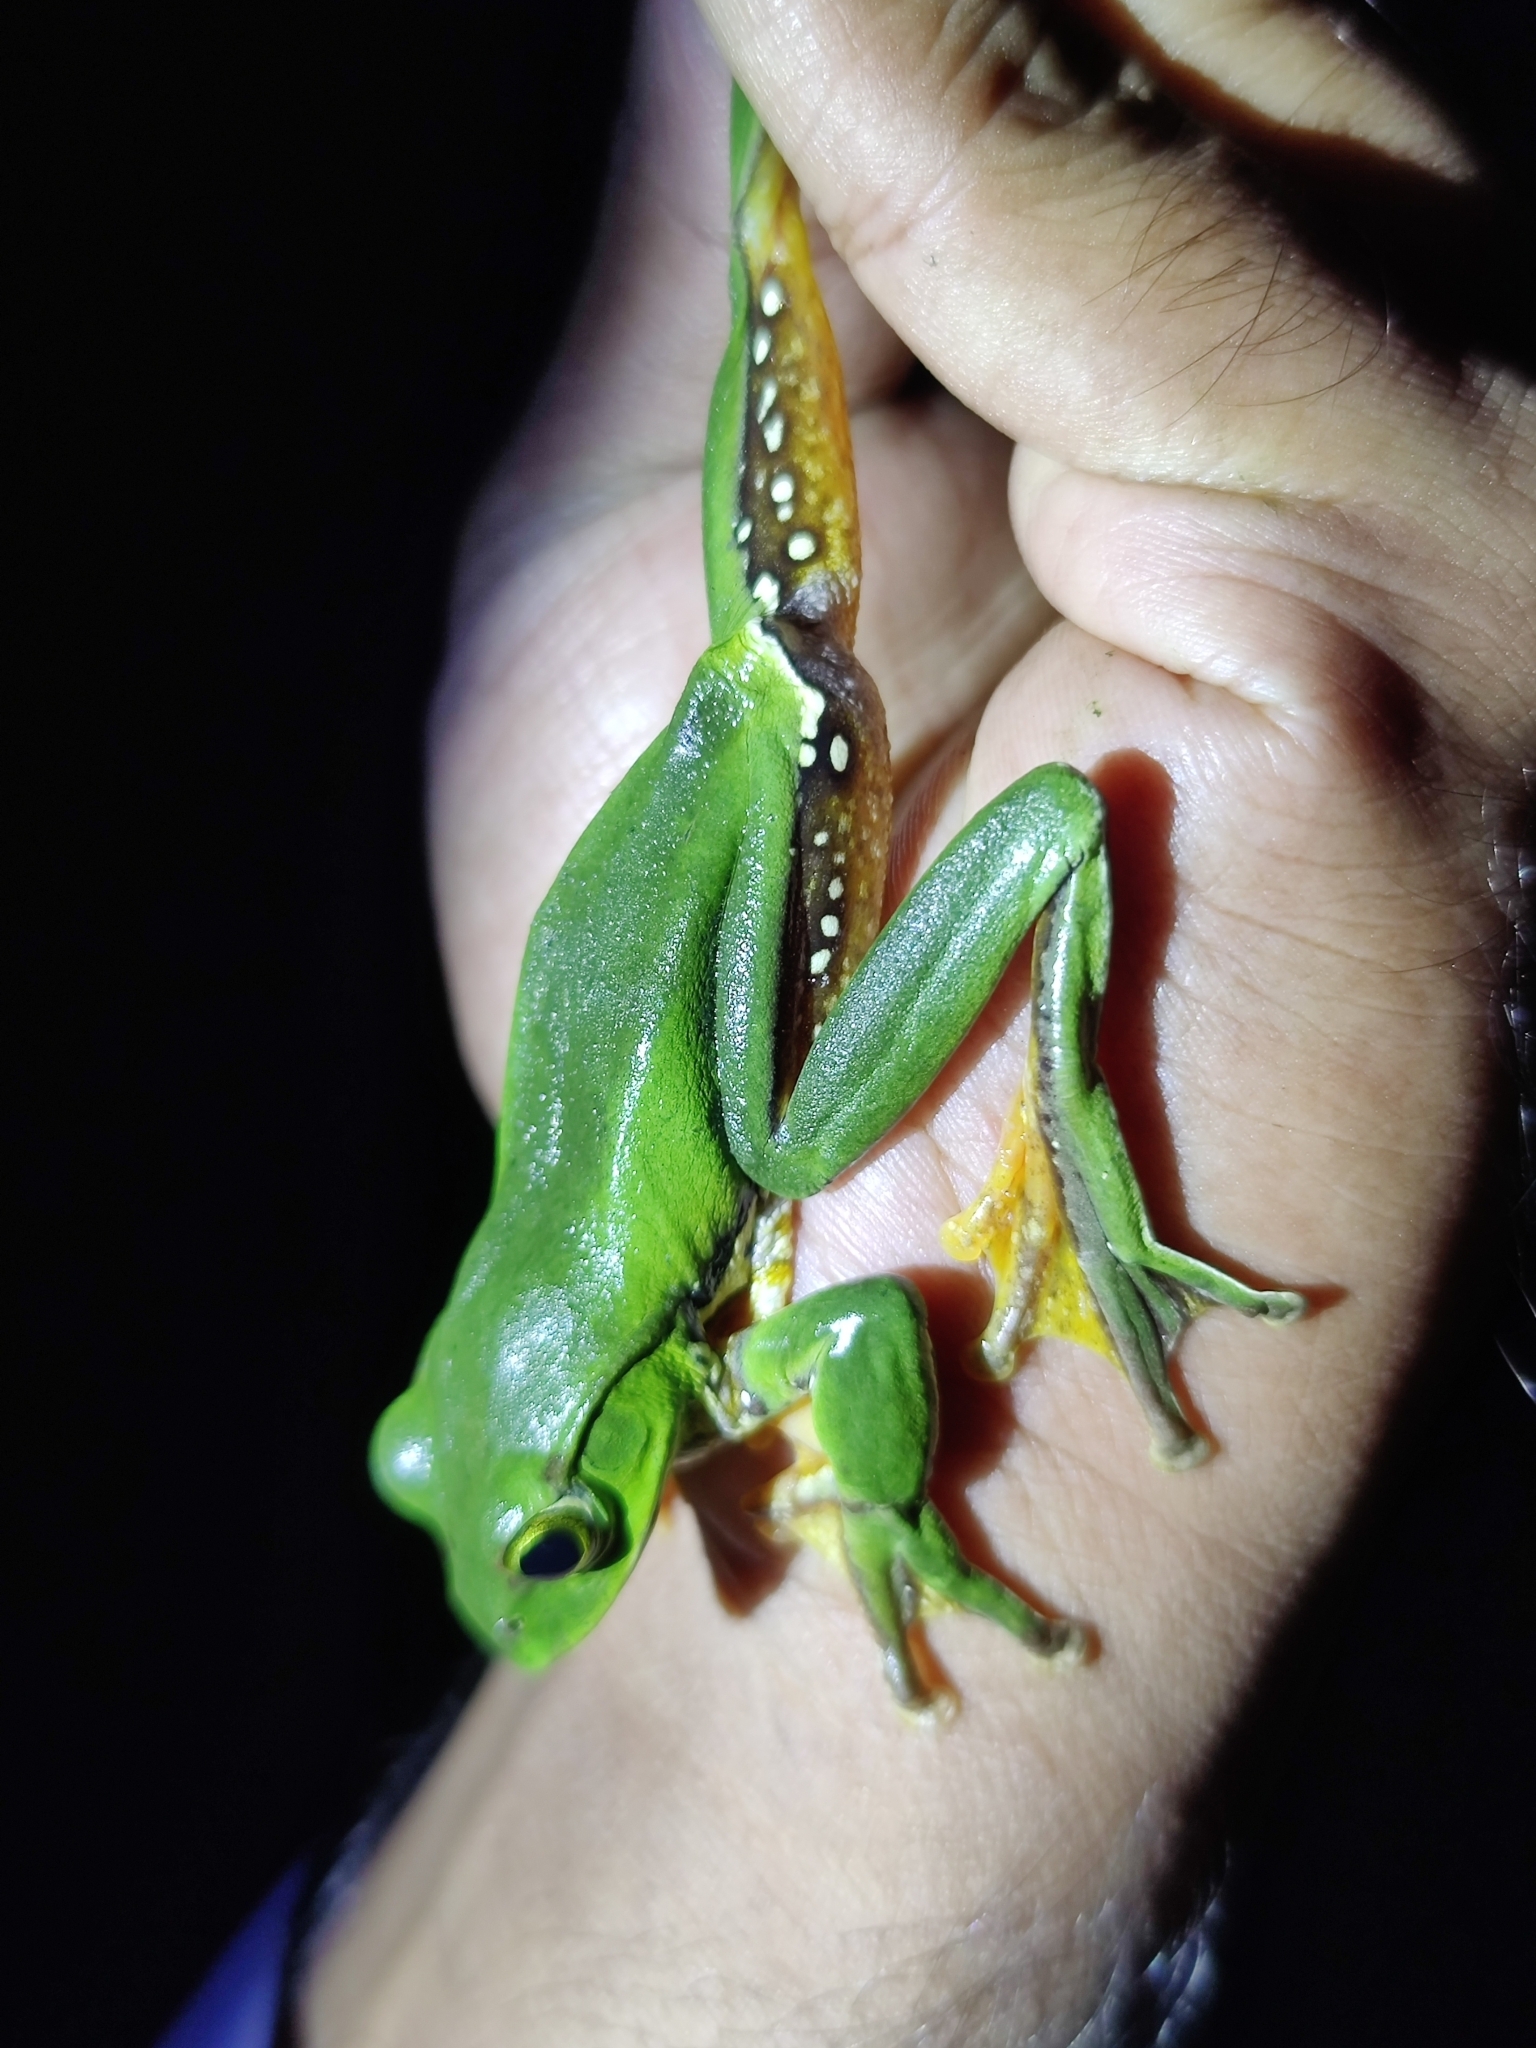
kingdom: Animalia
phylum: Chordata
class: Amphibia
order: Anura
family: Rhacophoridae
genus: Zhangixalus
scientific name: Zhangixalus burmanus
